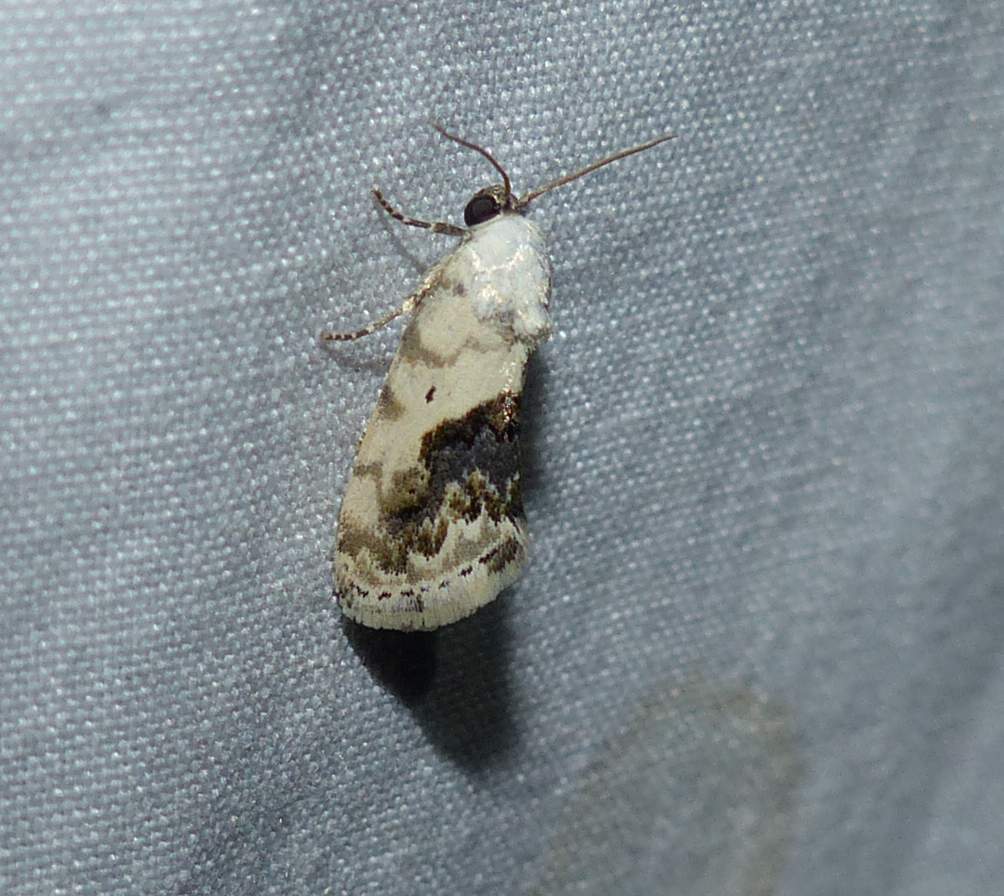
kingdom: Animalia
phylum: Arthropoda
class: Insecta
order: Lepidoptera
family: Noctuidae
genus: Acontia
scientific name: Acontia erastrioides
